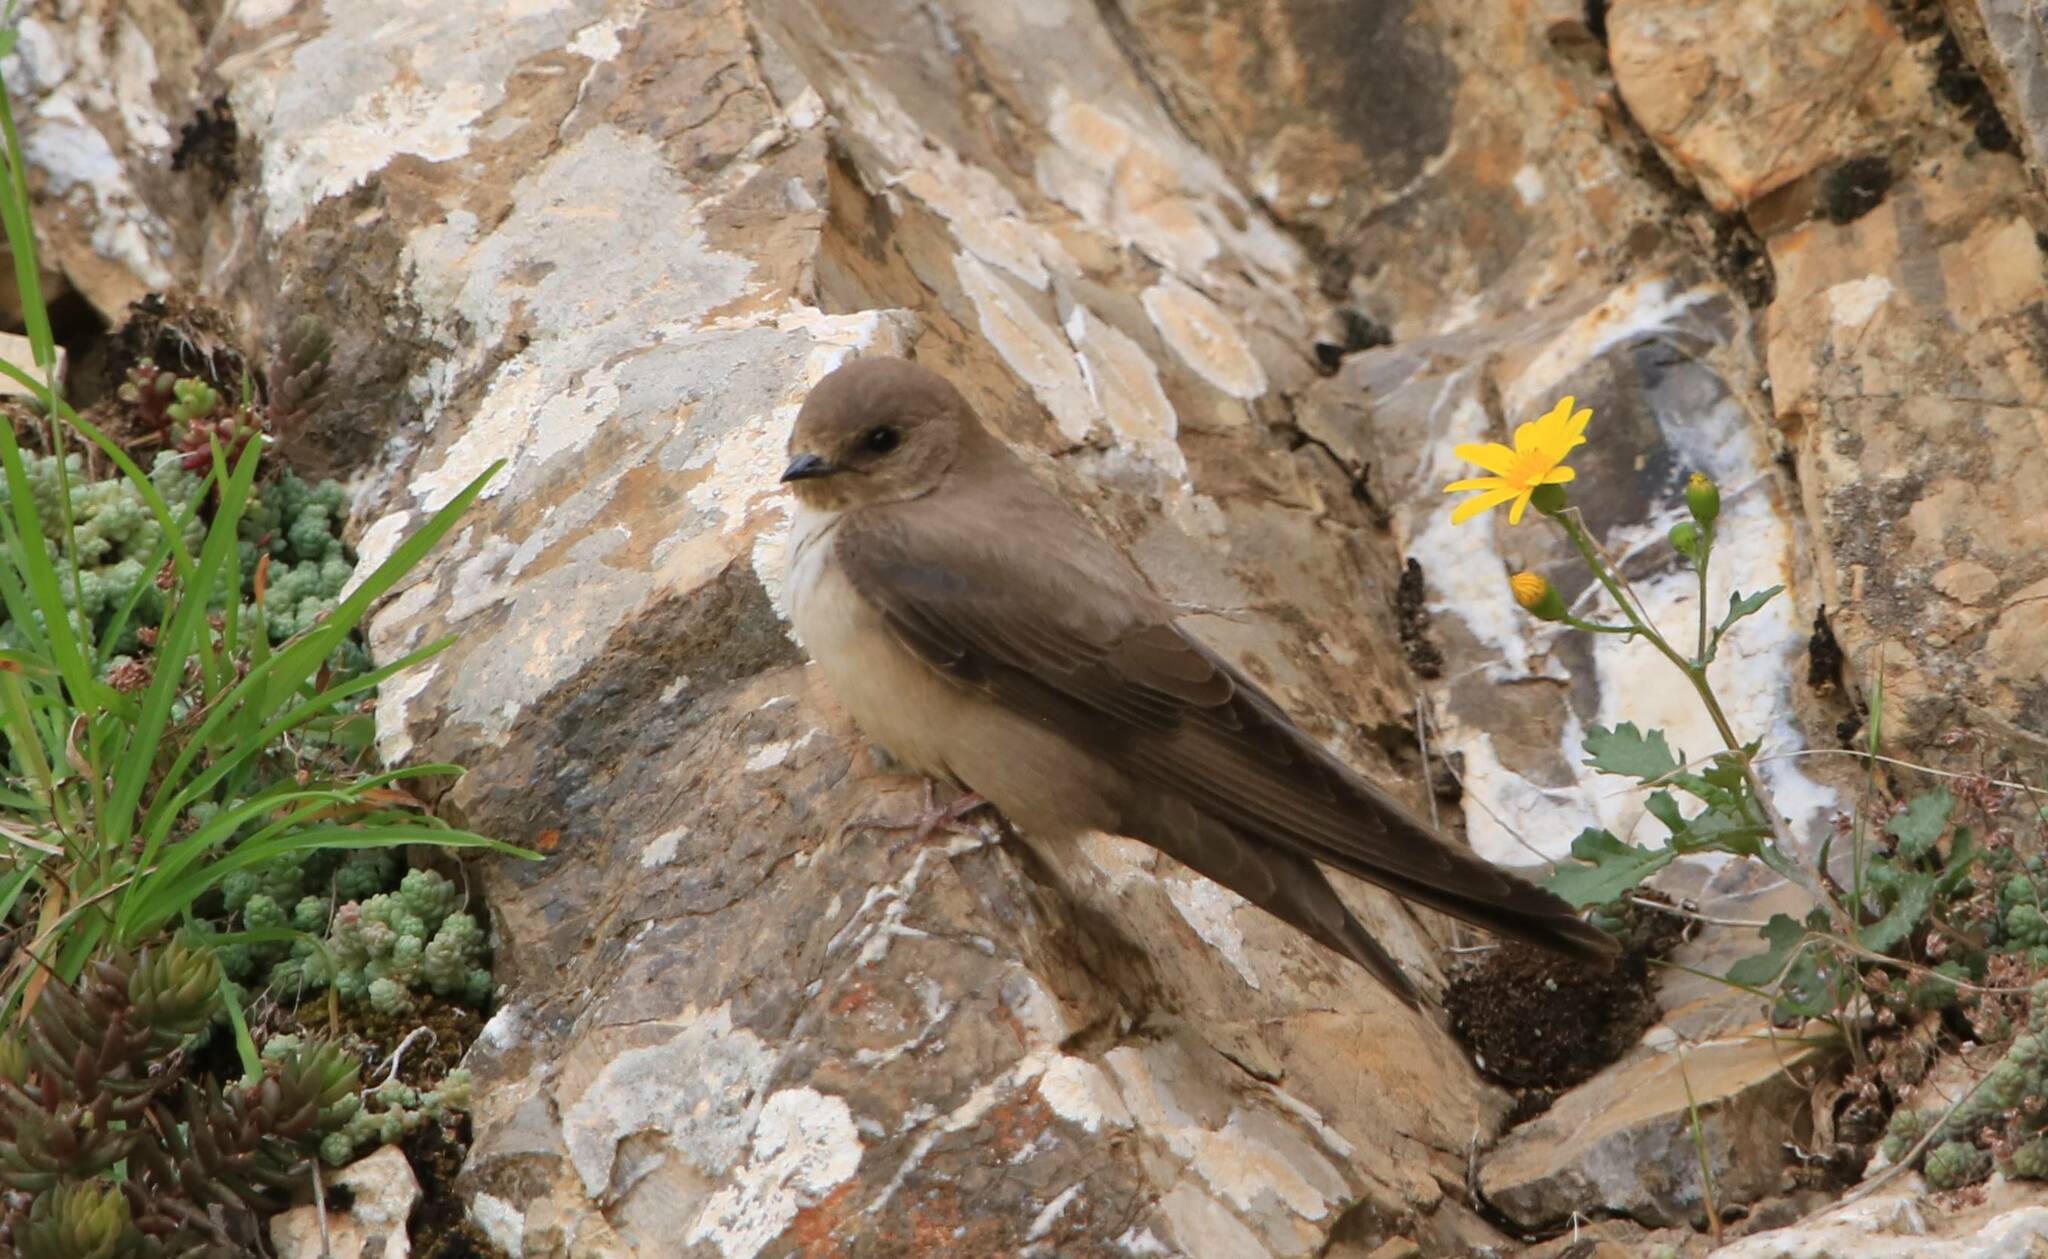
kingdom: Animalia
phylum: Chordata
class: Aves
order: Passeriformes
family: Hirundinidae
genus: Ptyonoprogne
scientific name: Ptyonoprogne rupestris
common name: Eurasian crag martin
